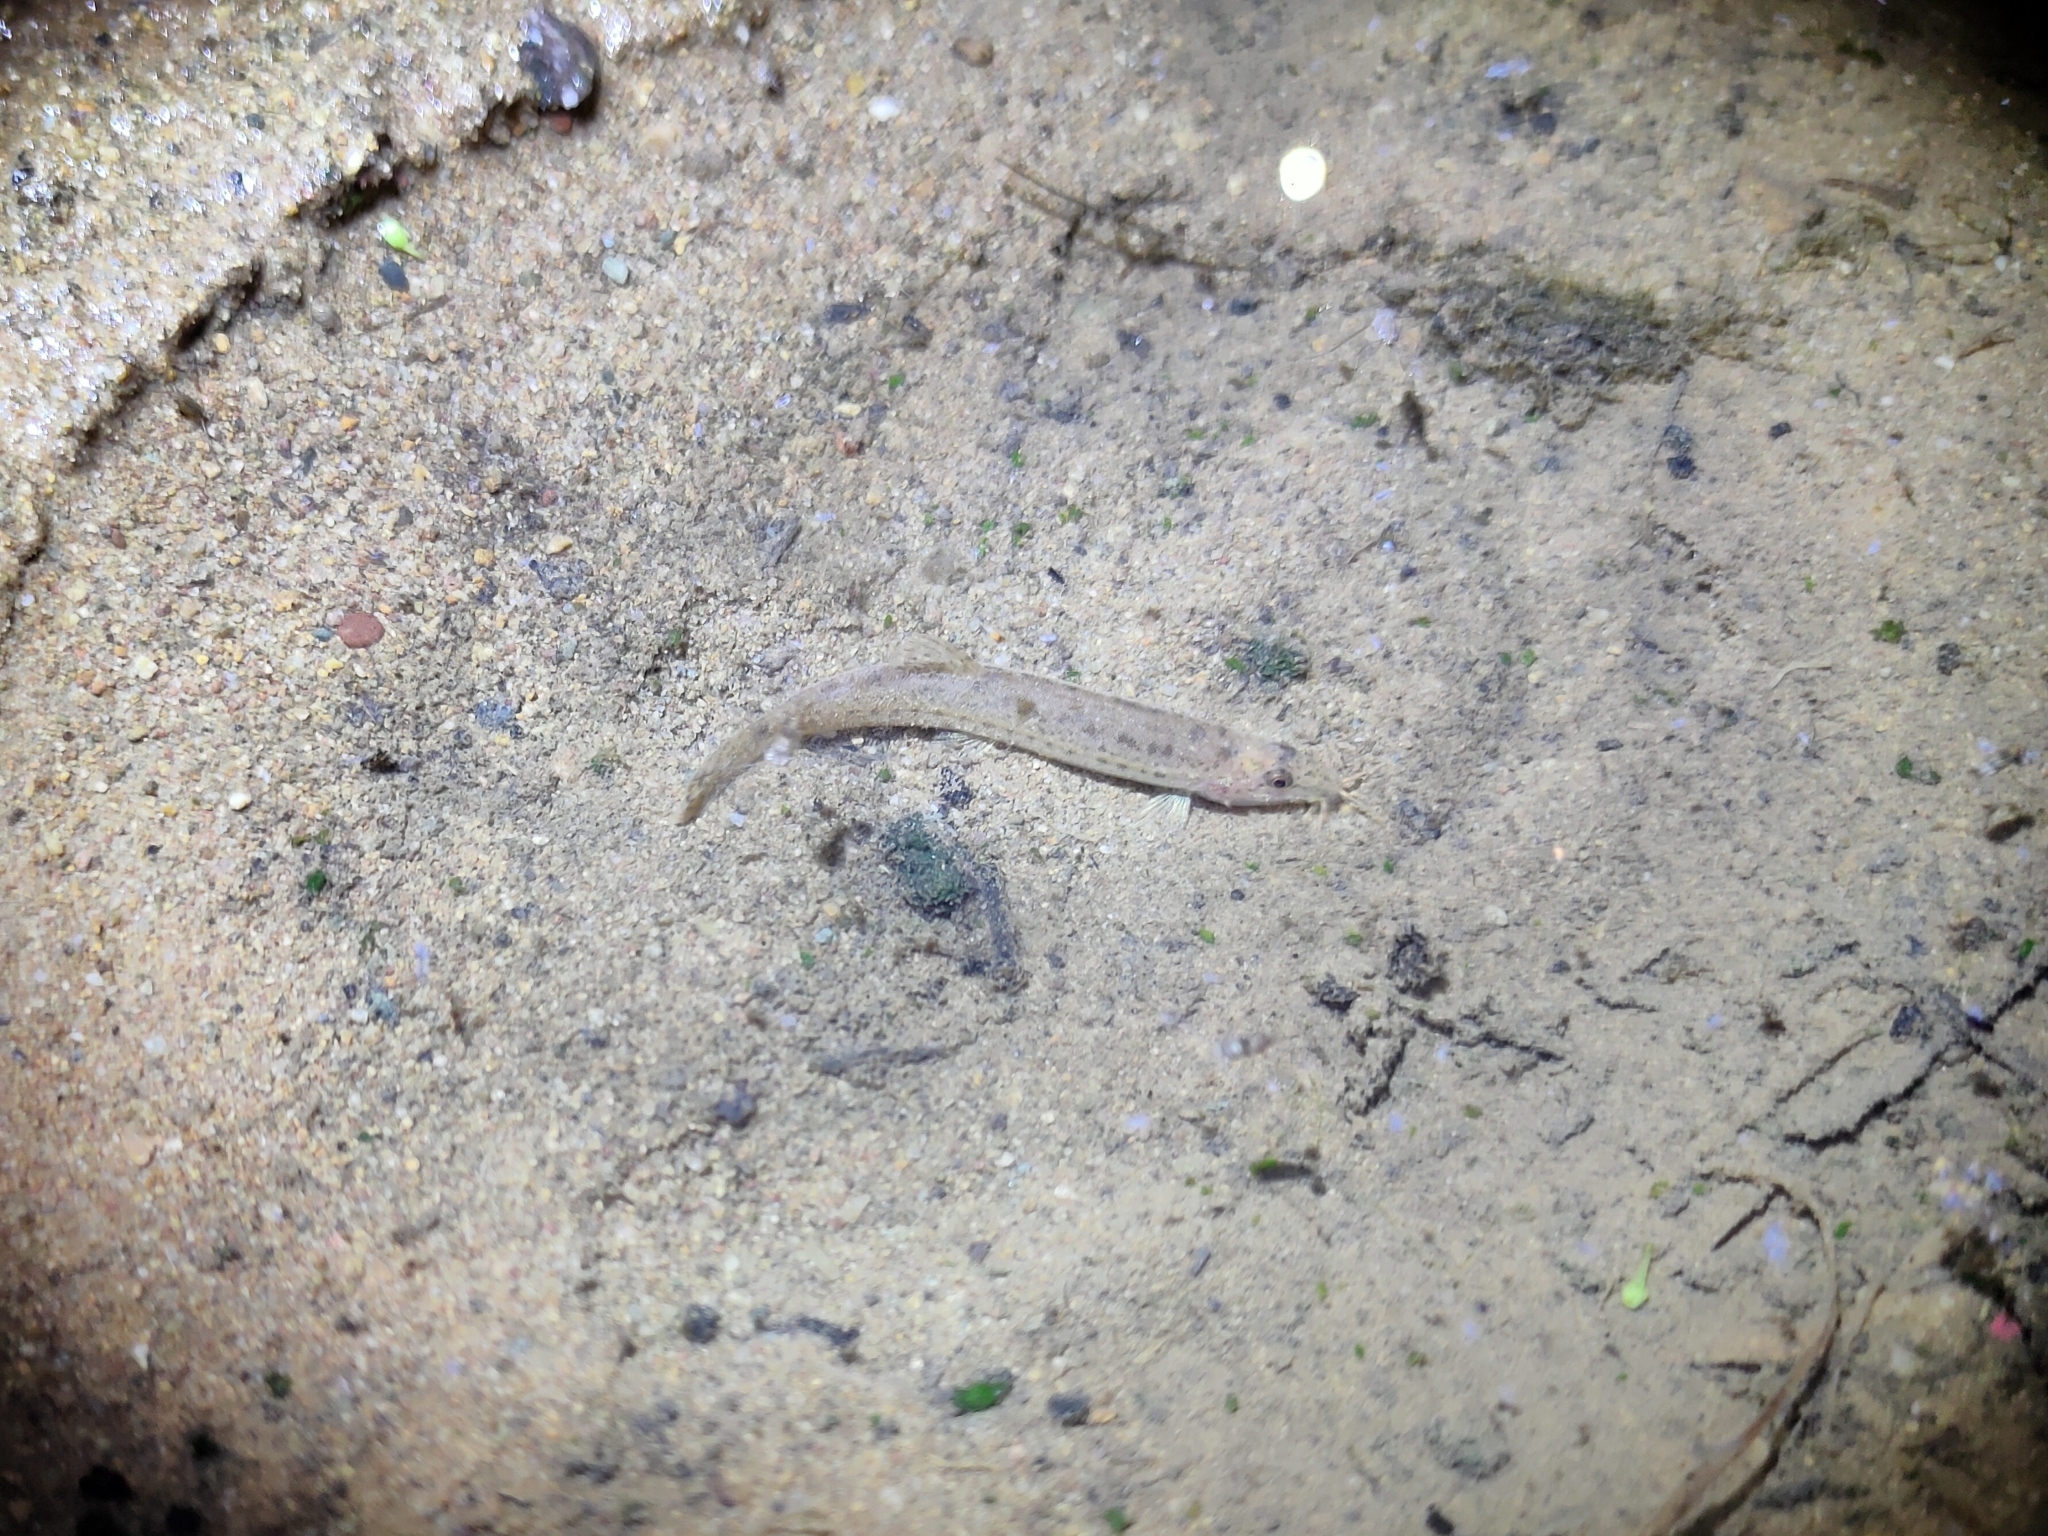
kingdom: Animalia
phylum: Chordata
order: Cypriniformes
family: Cobitidae
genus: Lepidocephalichthys
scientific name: Lepidocephalichthys berdmorei
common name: Burmese loach
